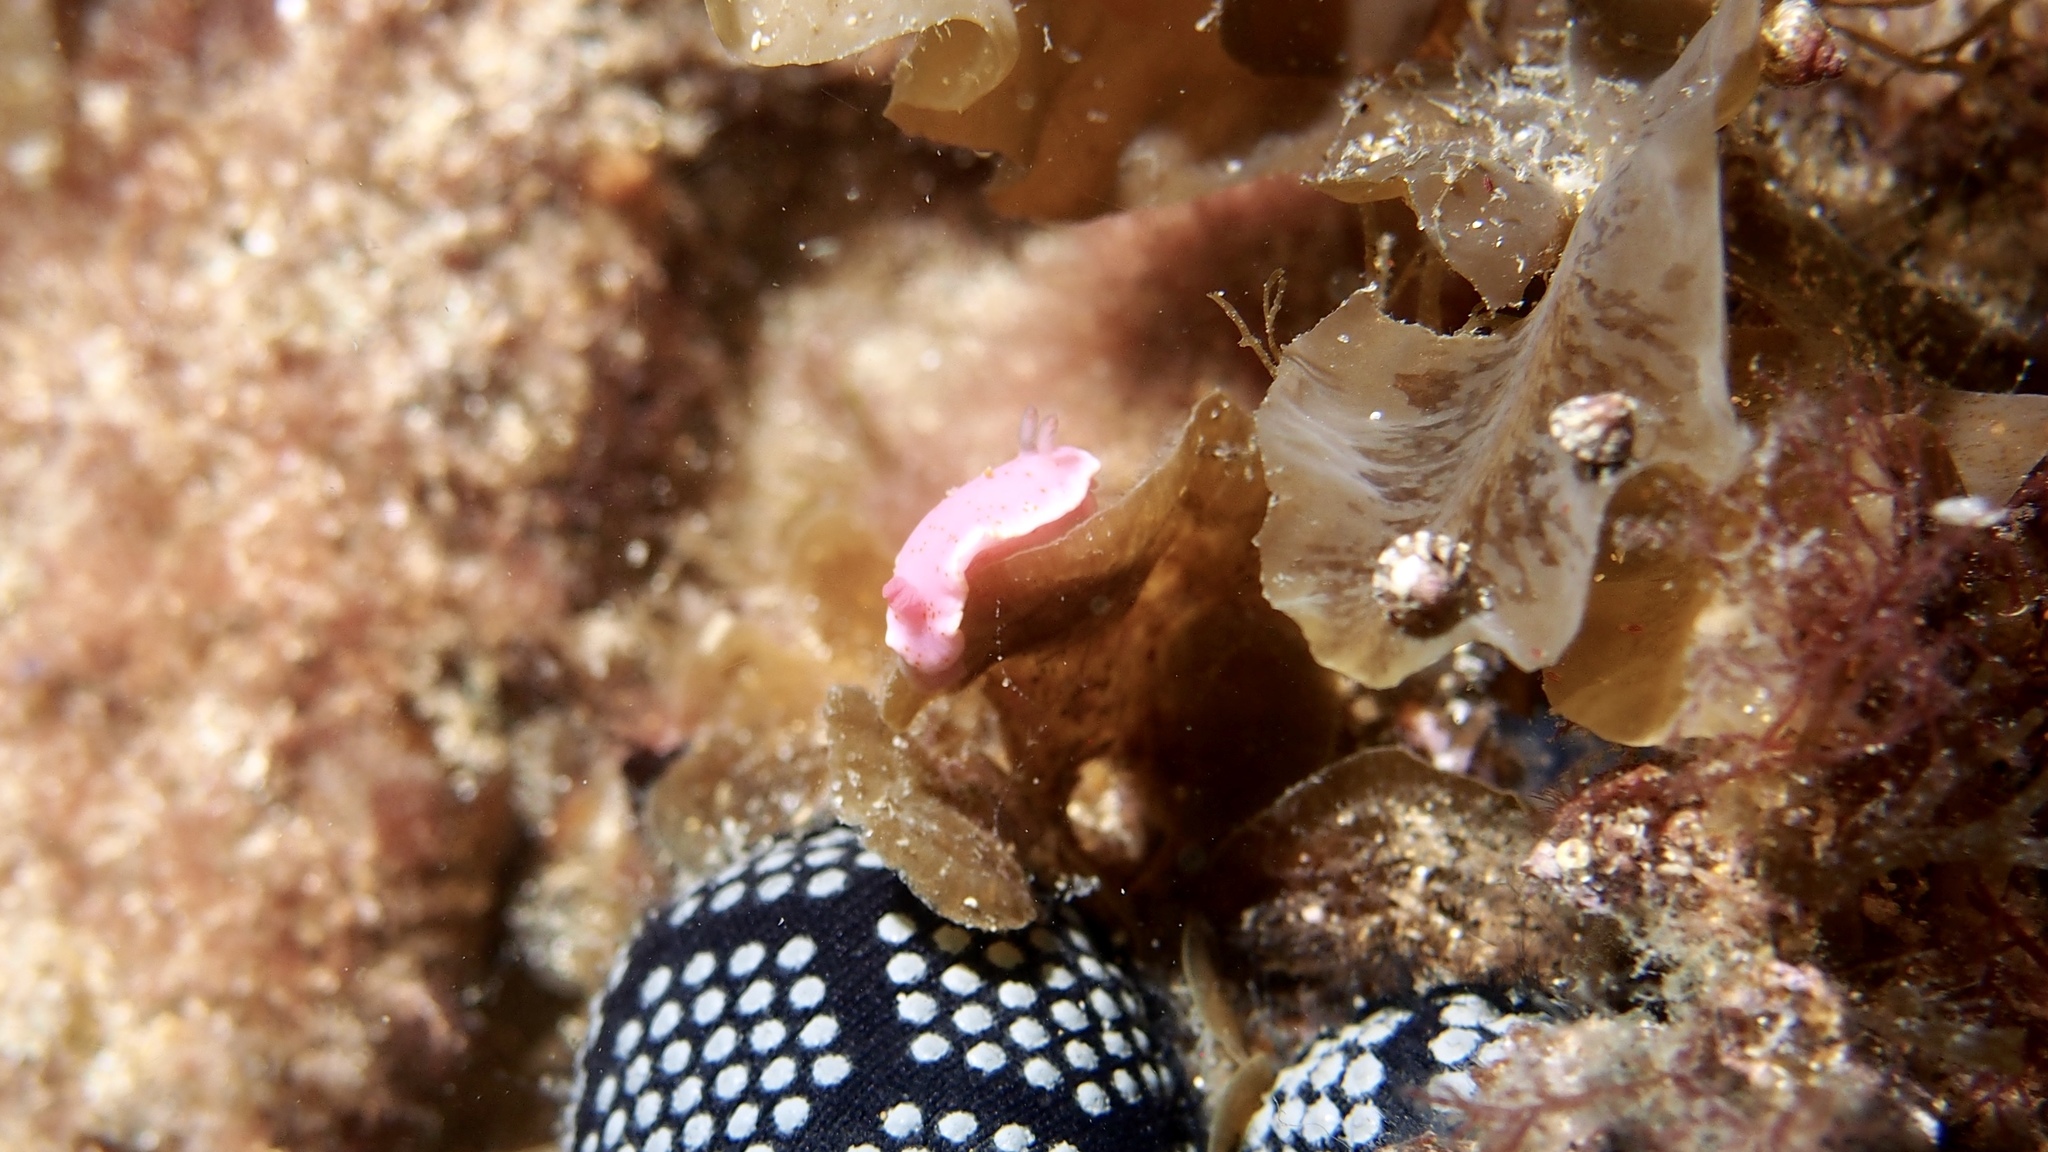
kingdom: Animalia
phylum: Mollusca
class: Gastropoda
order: Nudibranchia
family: Chromodorididae
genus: Verconia
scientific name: Verconia haliclona
